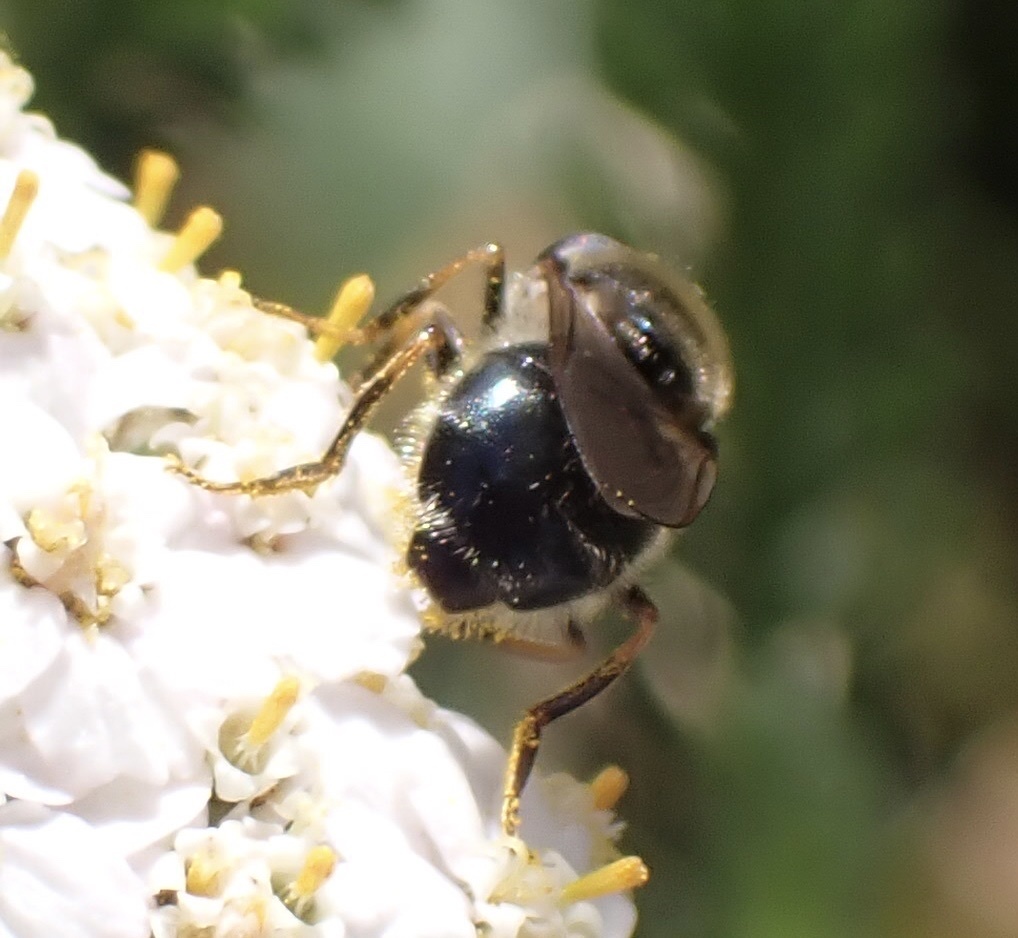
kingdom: Animalia
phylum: Arthropoda
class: Insecta
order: Diptera
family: Syrphidae
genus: Cheilosia
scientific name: Cheilosia caerulescens
